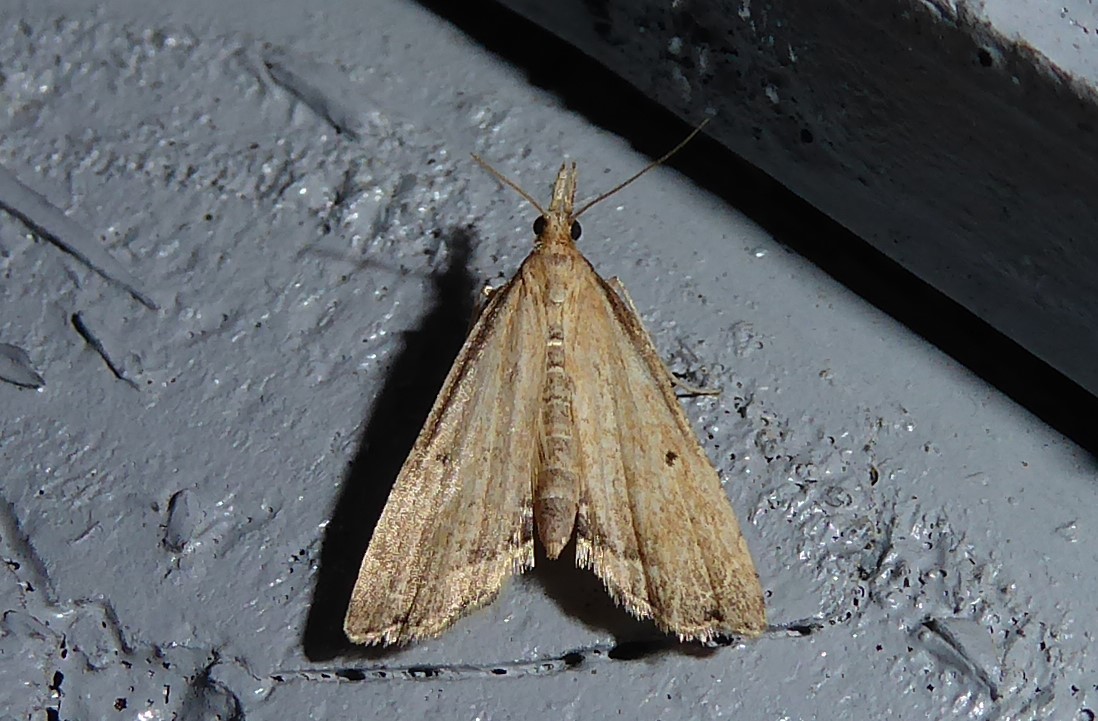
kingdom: Animalia
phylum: Arthropoda
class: Insecta
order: Lepidoptera
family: Crambidae
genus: Diplopseustis
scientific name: Diplopseustis perieresalis
